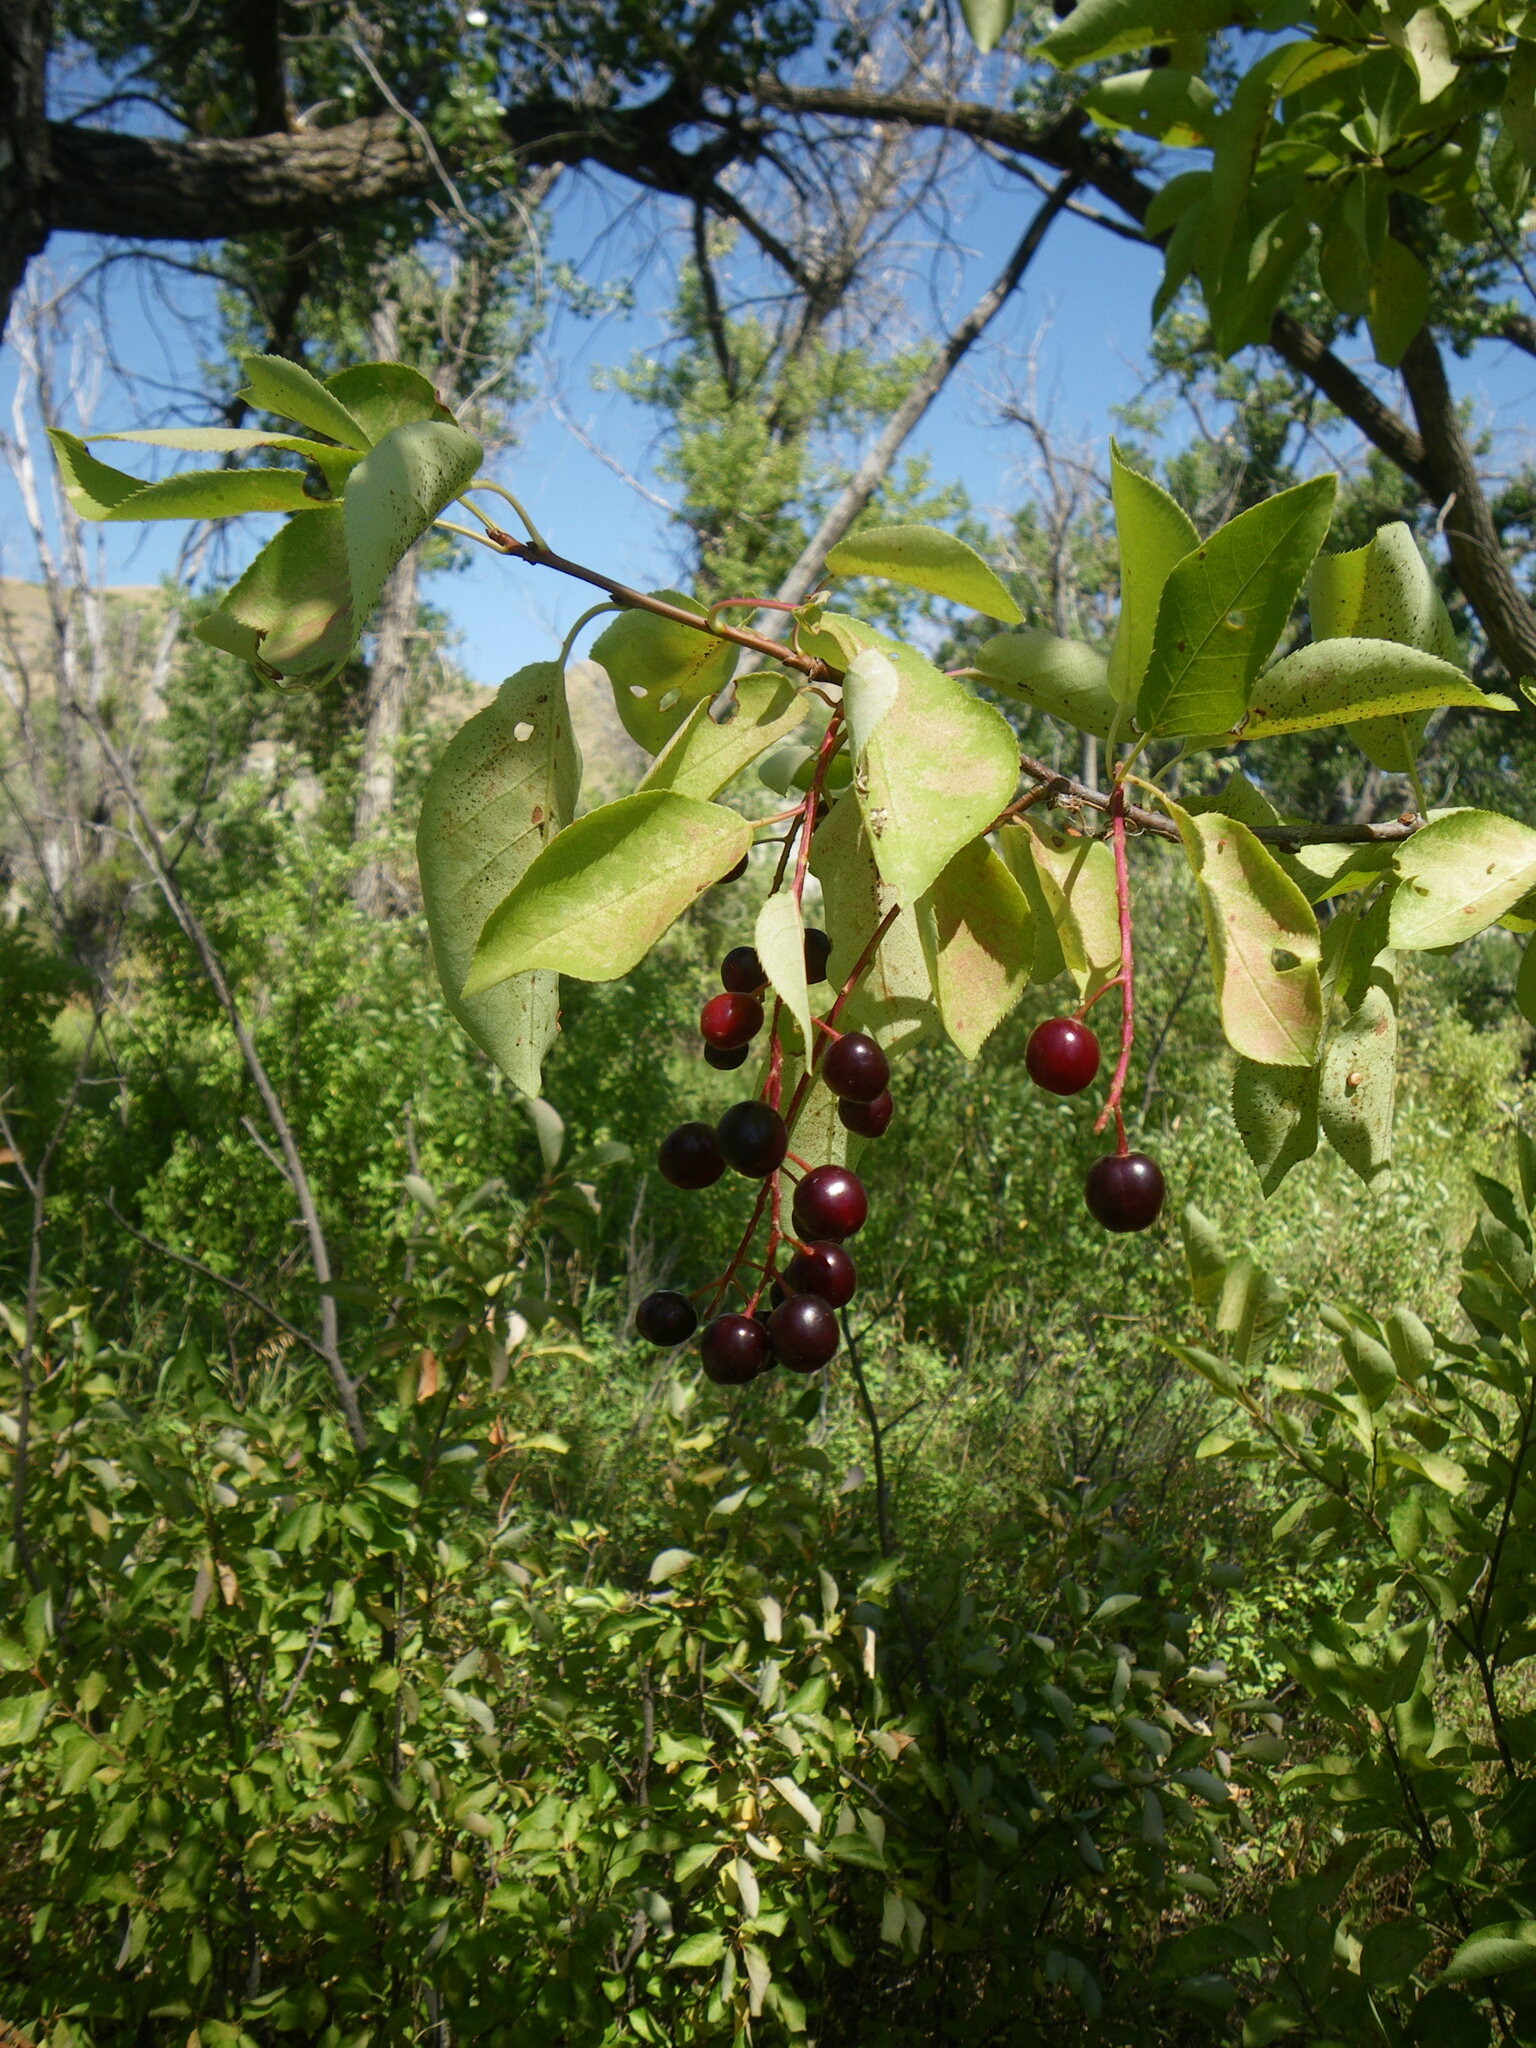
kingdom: Plantae
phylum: Tracheophyta
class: Magnoliopsida
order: Rosales
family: Rosaceae
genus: Prunus
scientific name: Prunus virginiana
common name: Chokecherry
